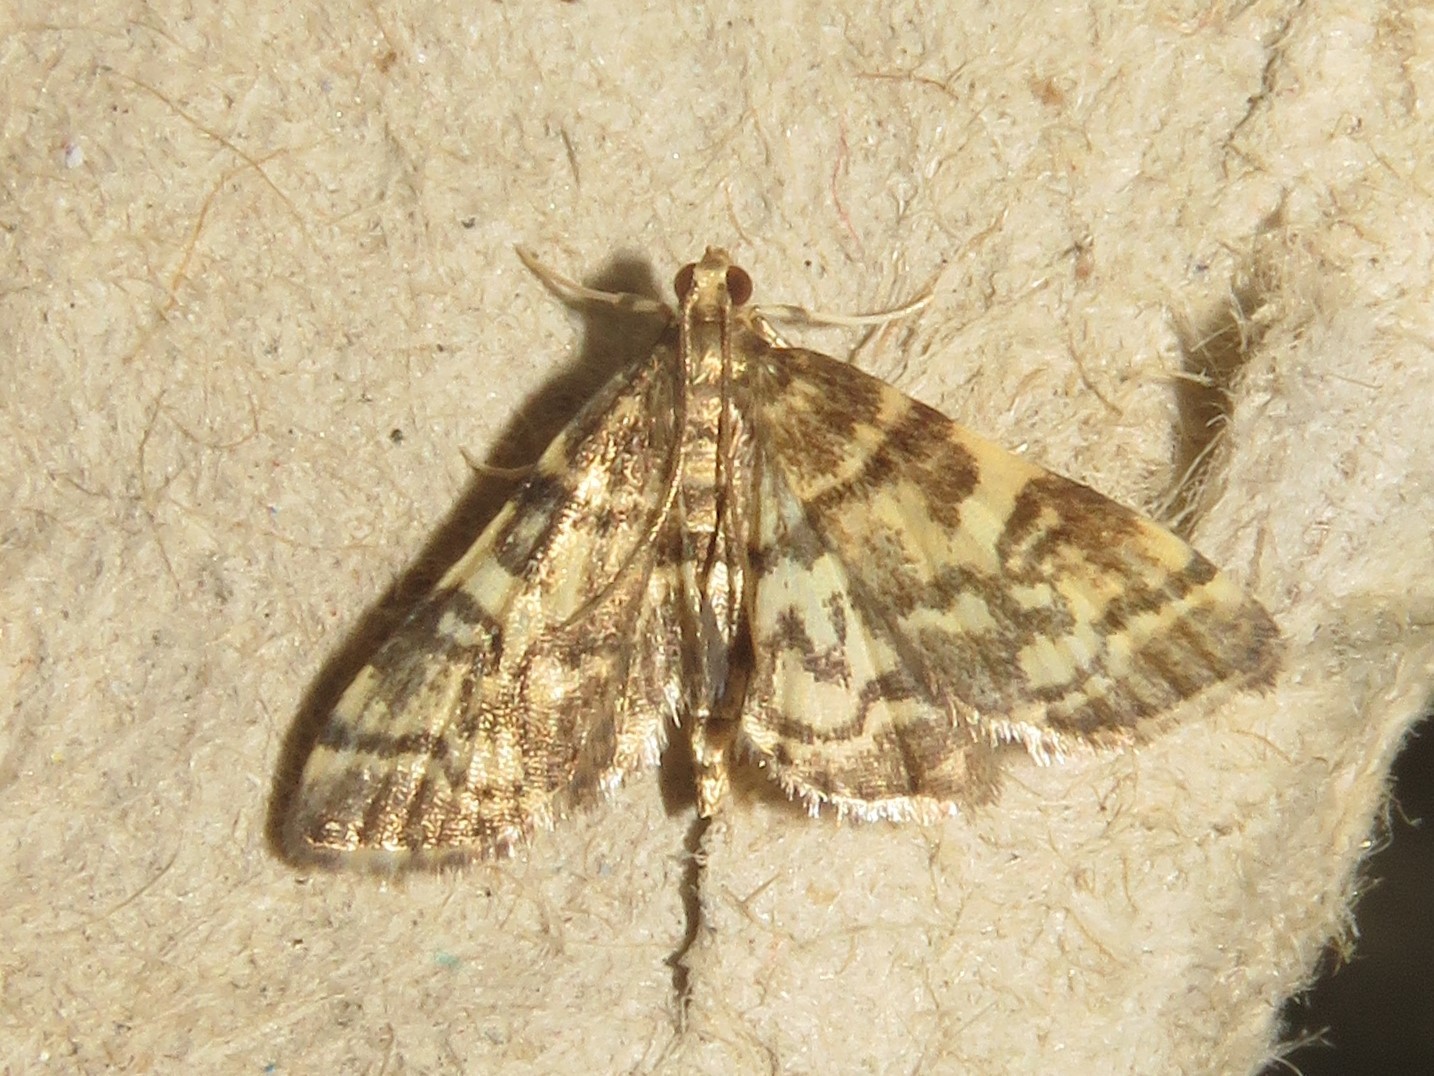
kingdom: Animalia
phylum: Arthropoda
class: Insecta
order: Lepidoptera
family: Crambidae
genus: Apogeshna
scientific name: Apogeshna stenialis
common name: Checkered apogeshna moth
